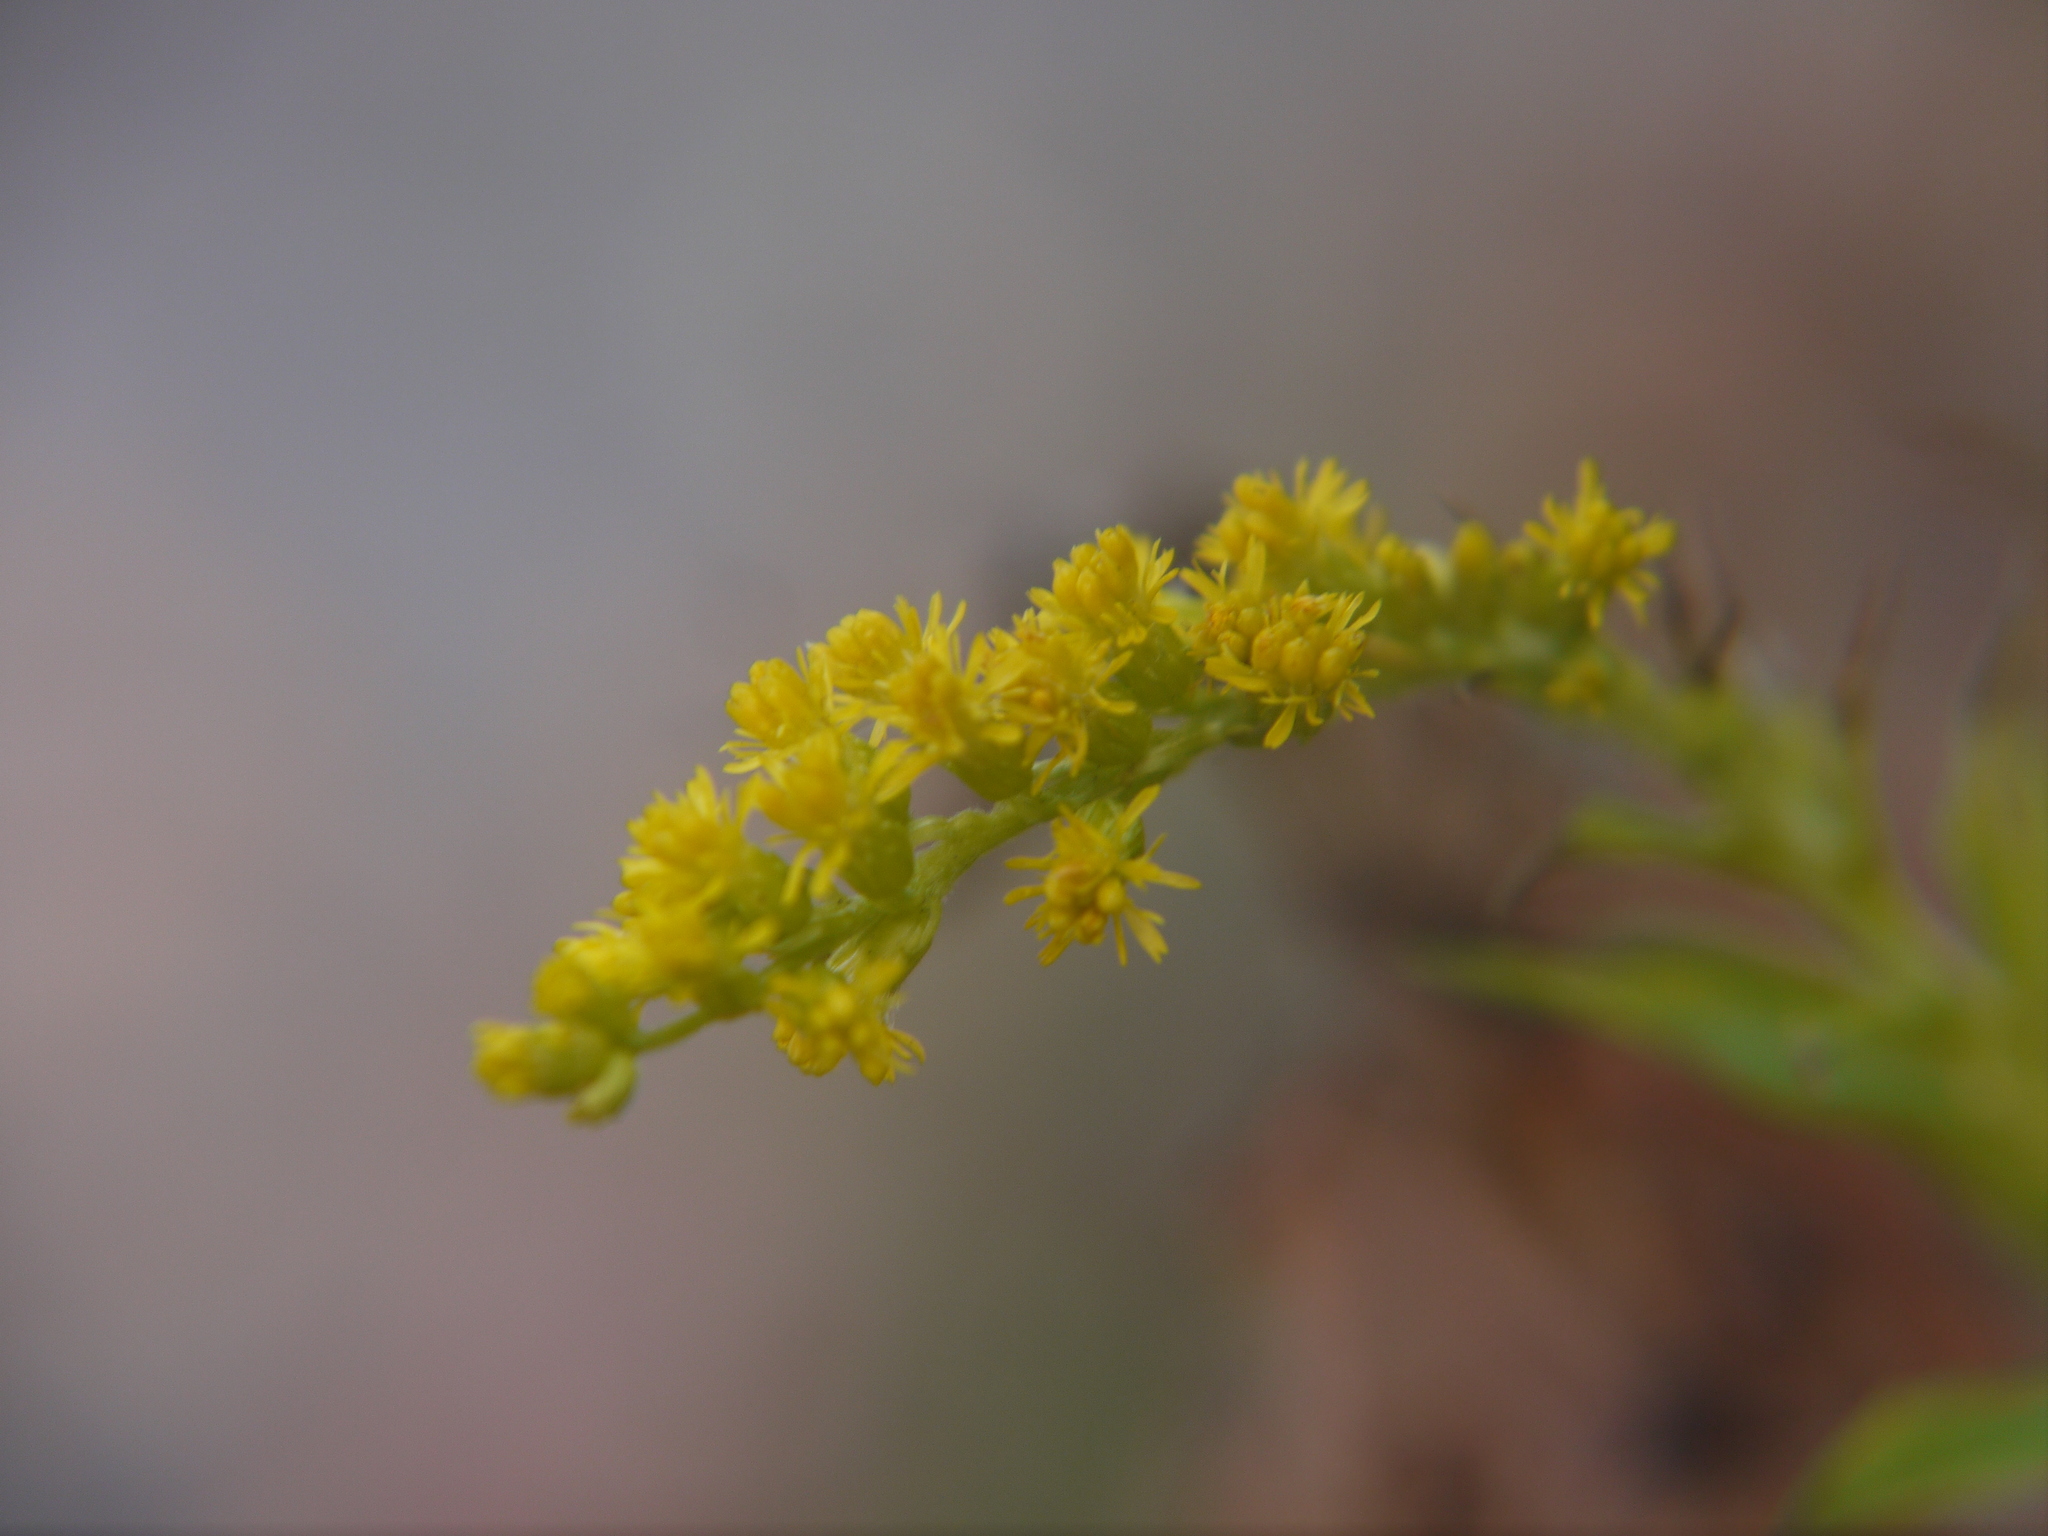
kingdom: Plantae
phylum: Tracheophyta
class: Magnoliopsida
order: Asterales
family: Asteraceae
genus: Solidago
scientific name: Solidago canadensis
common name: Canada goldenrod
